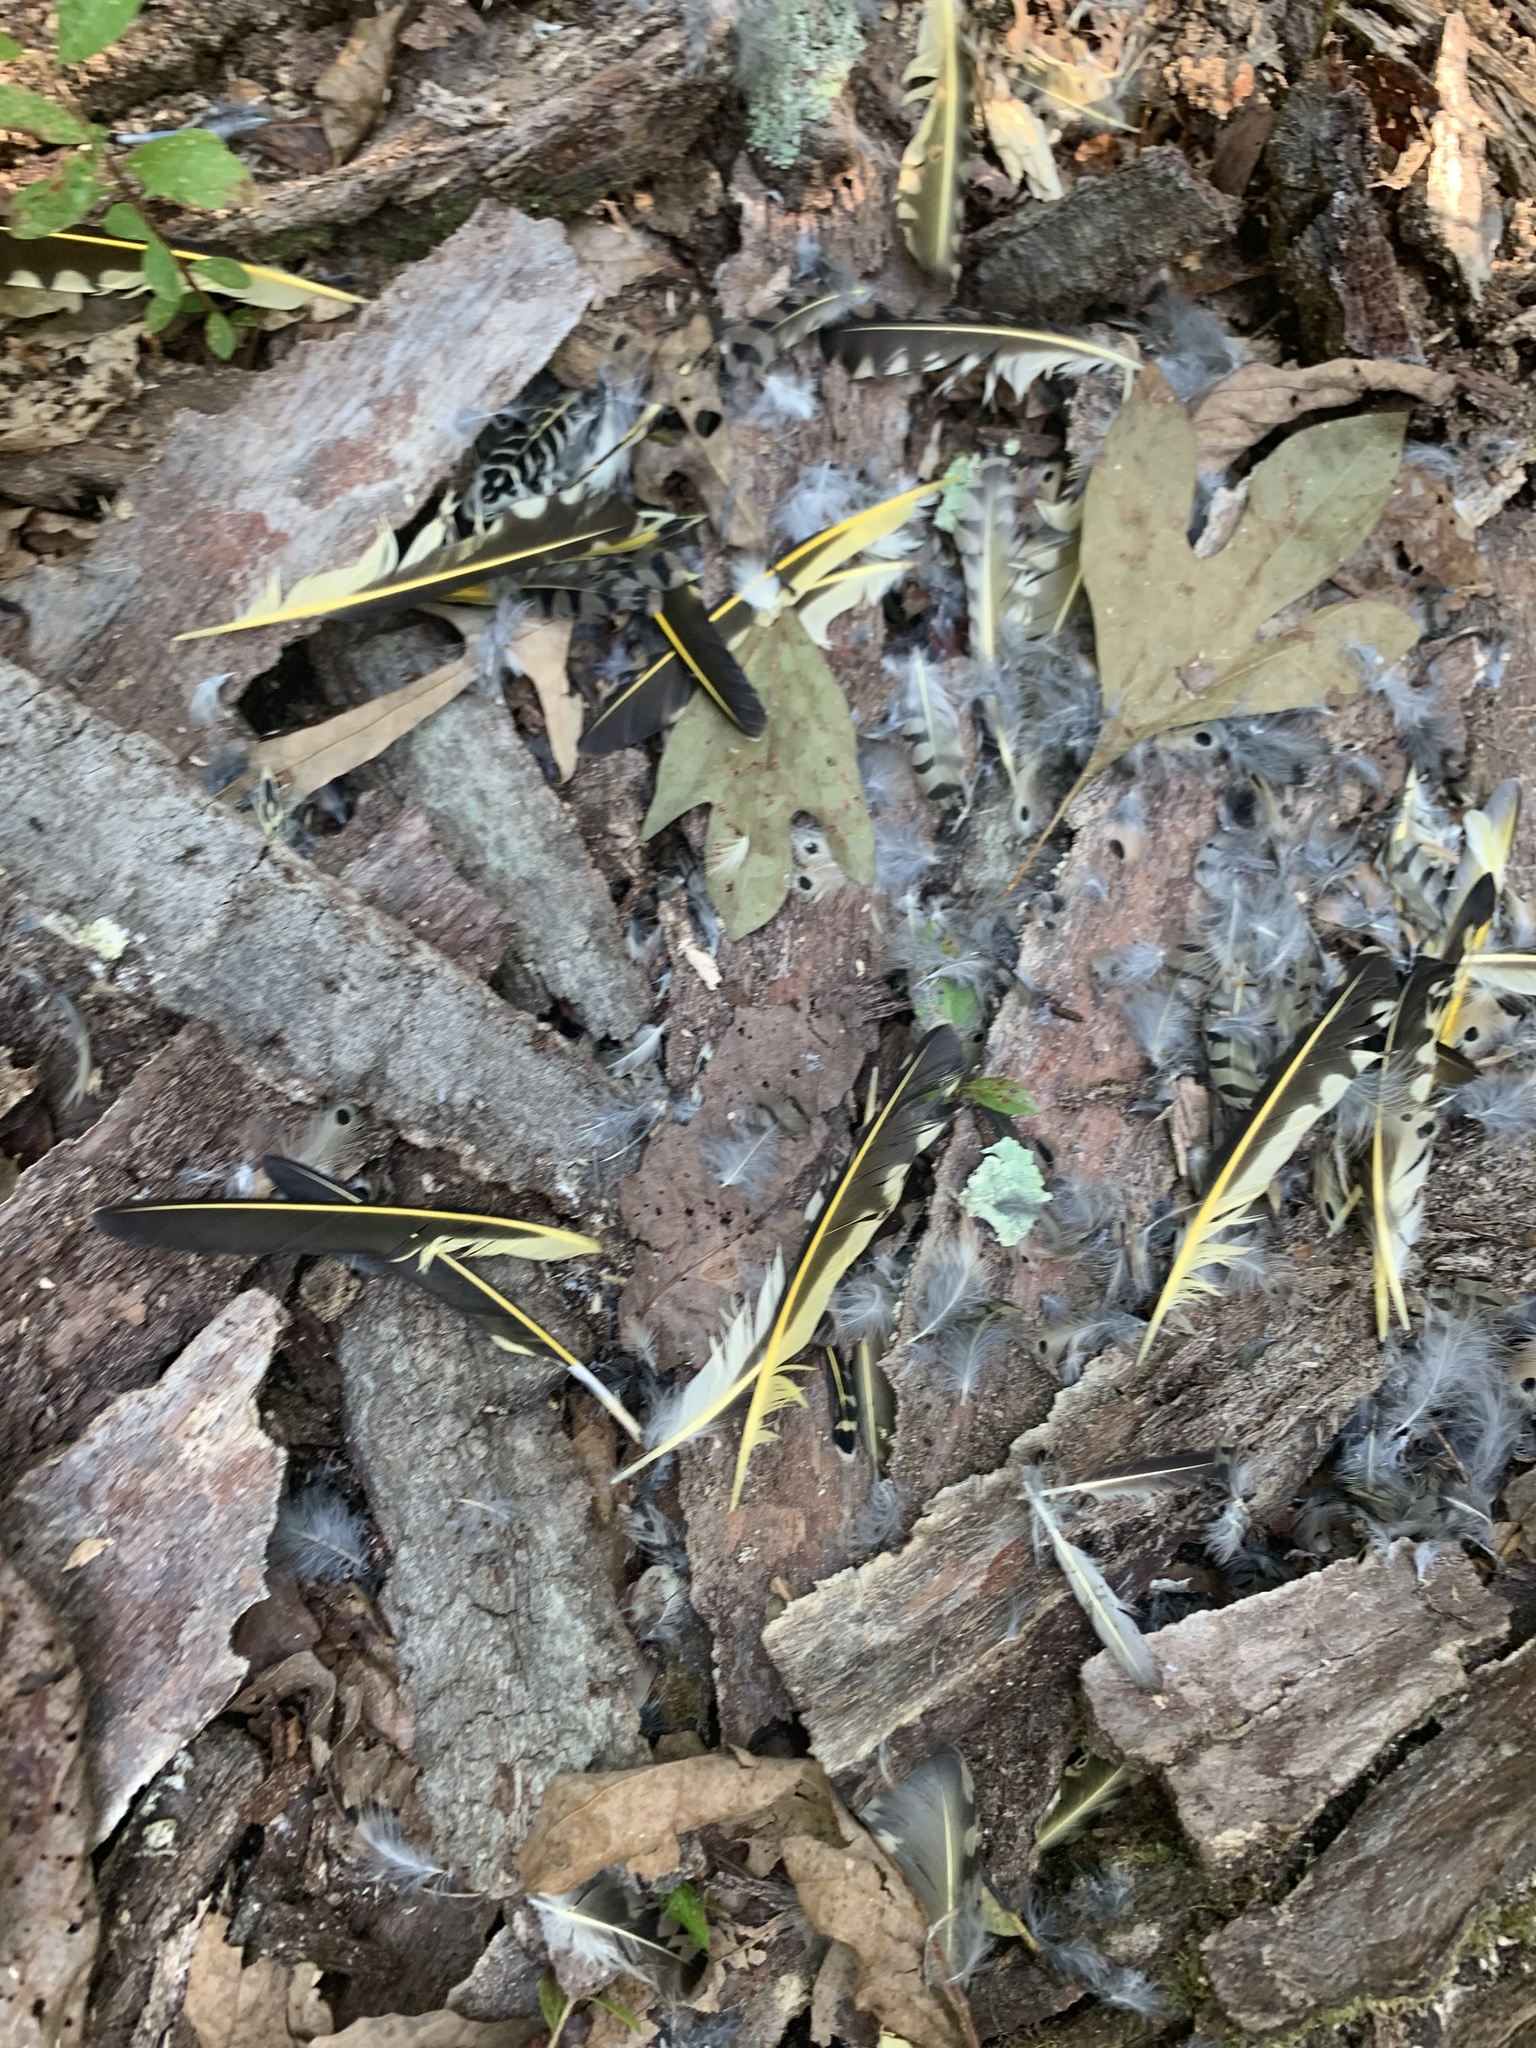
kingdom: Animalia
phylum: Chordata
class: Aves
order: Piciformes
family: Picidae
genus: Colaptes
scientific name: Colaptes auratus
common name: Northern flicker
